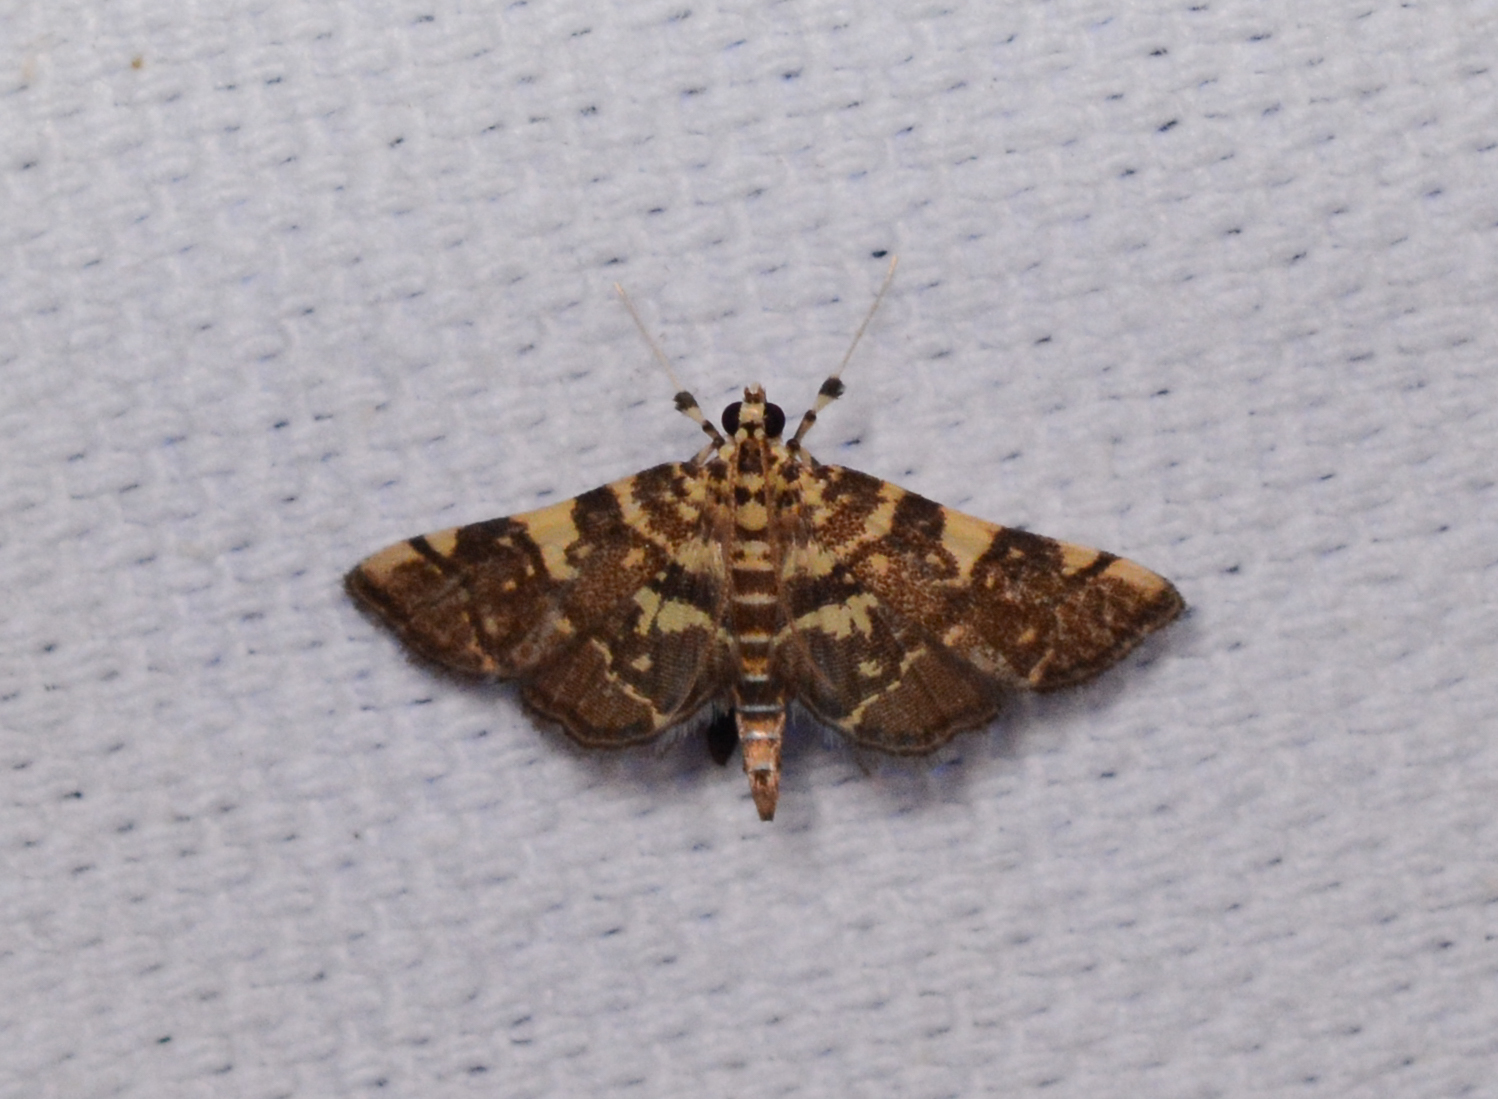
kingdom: Animalia
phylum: Arthropoda
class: Insecta
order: Lepidoptera
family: Crambidae
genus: Apogeshna
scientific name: Apogeshna stenialis
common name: Checkered apogeshna moth
